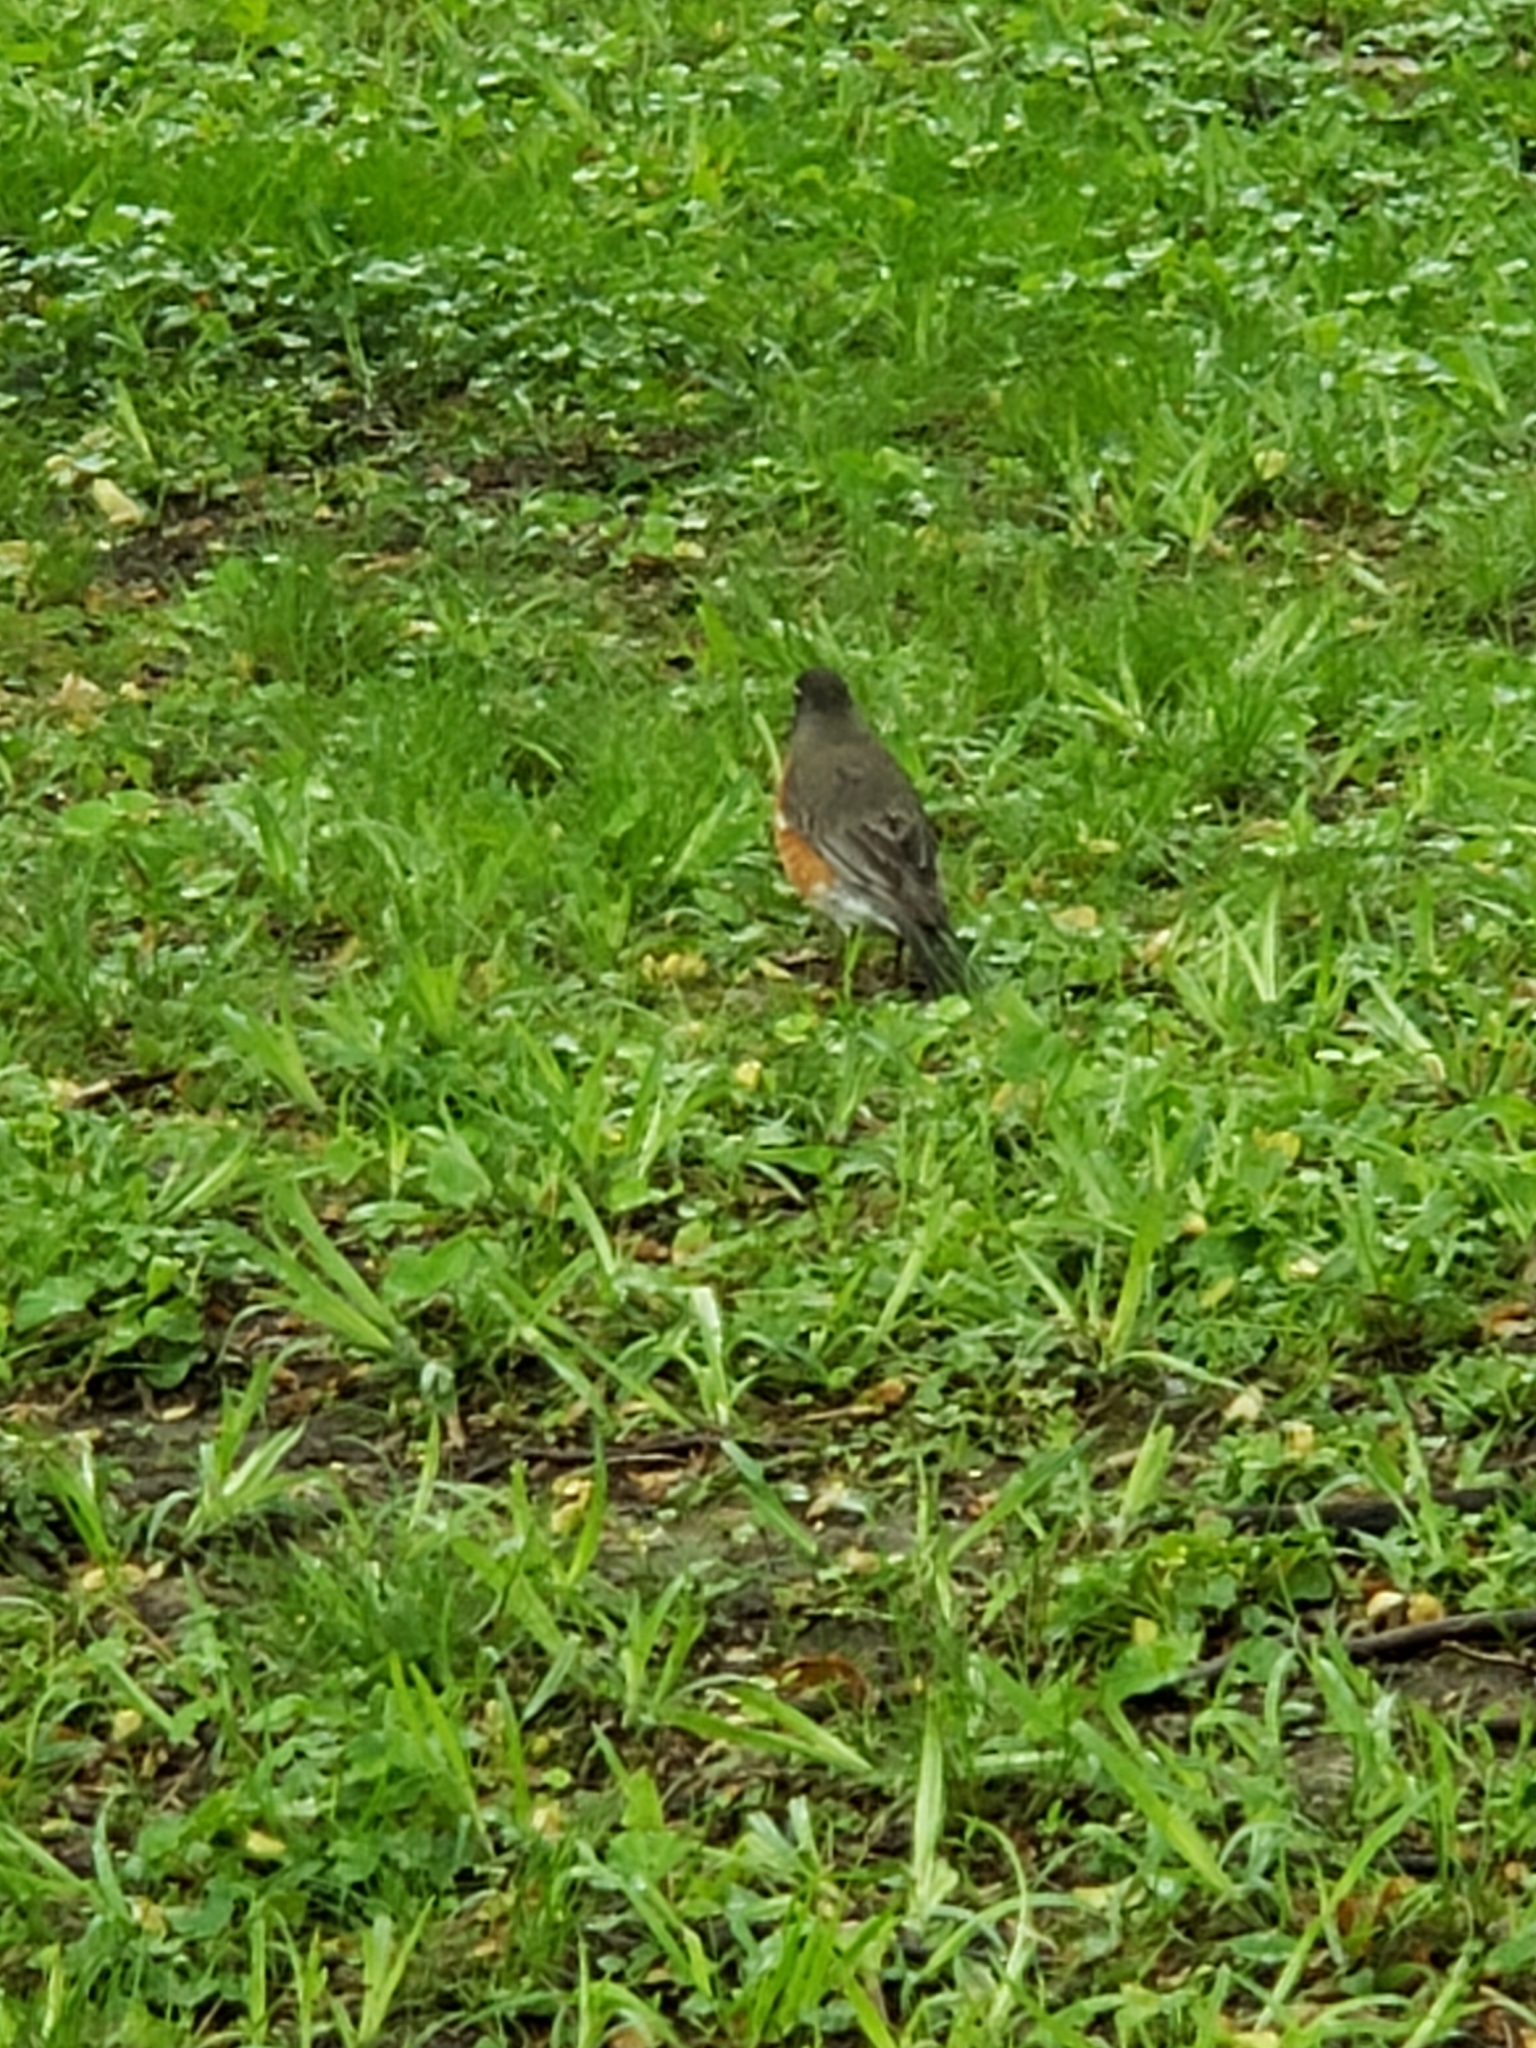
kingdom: Animalia
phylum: Chordata
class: Aves
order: Passeriformes
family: Turdidae
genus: Turdus
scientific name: Turdus migratorius
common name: American robin
